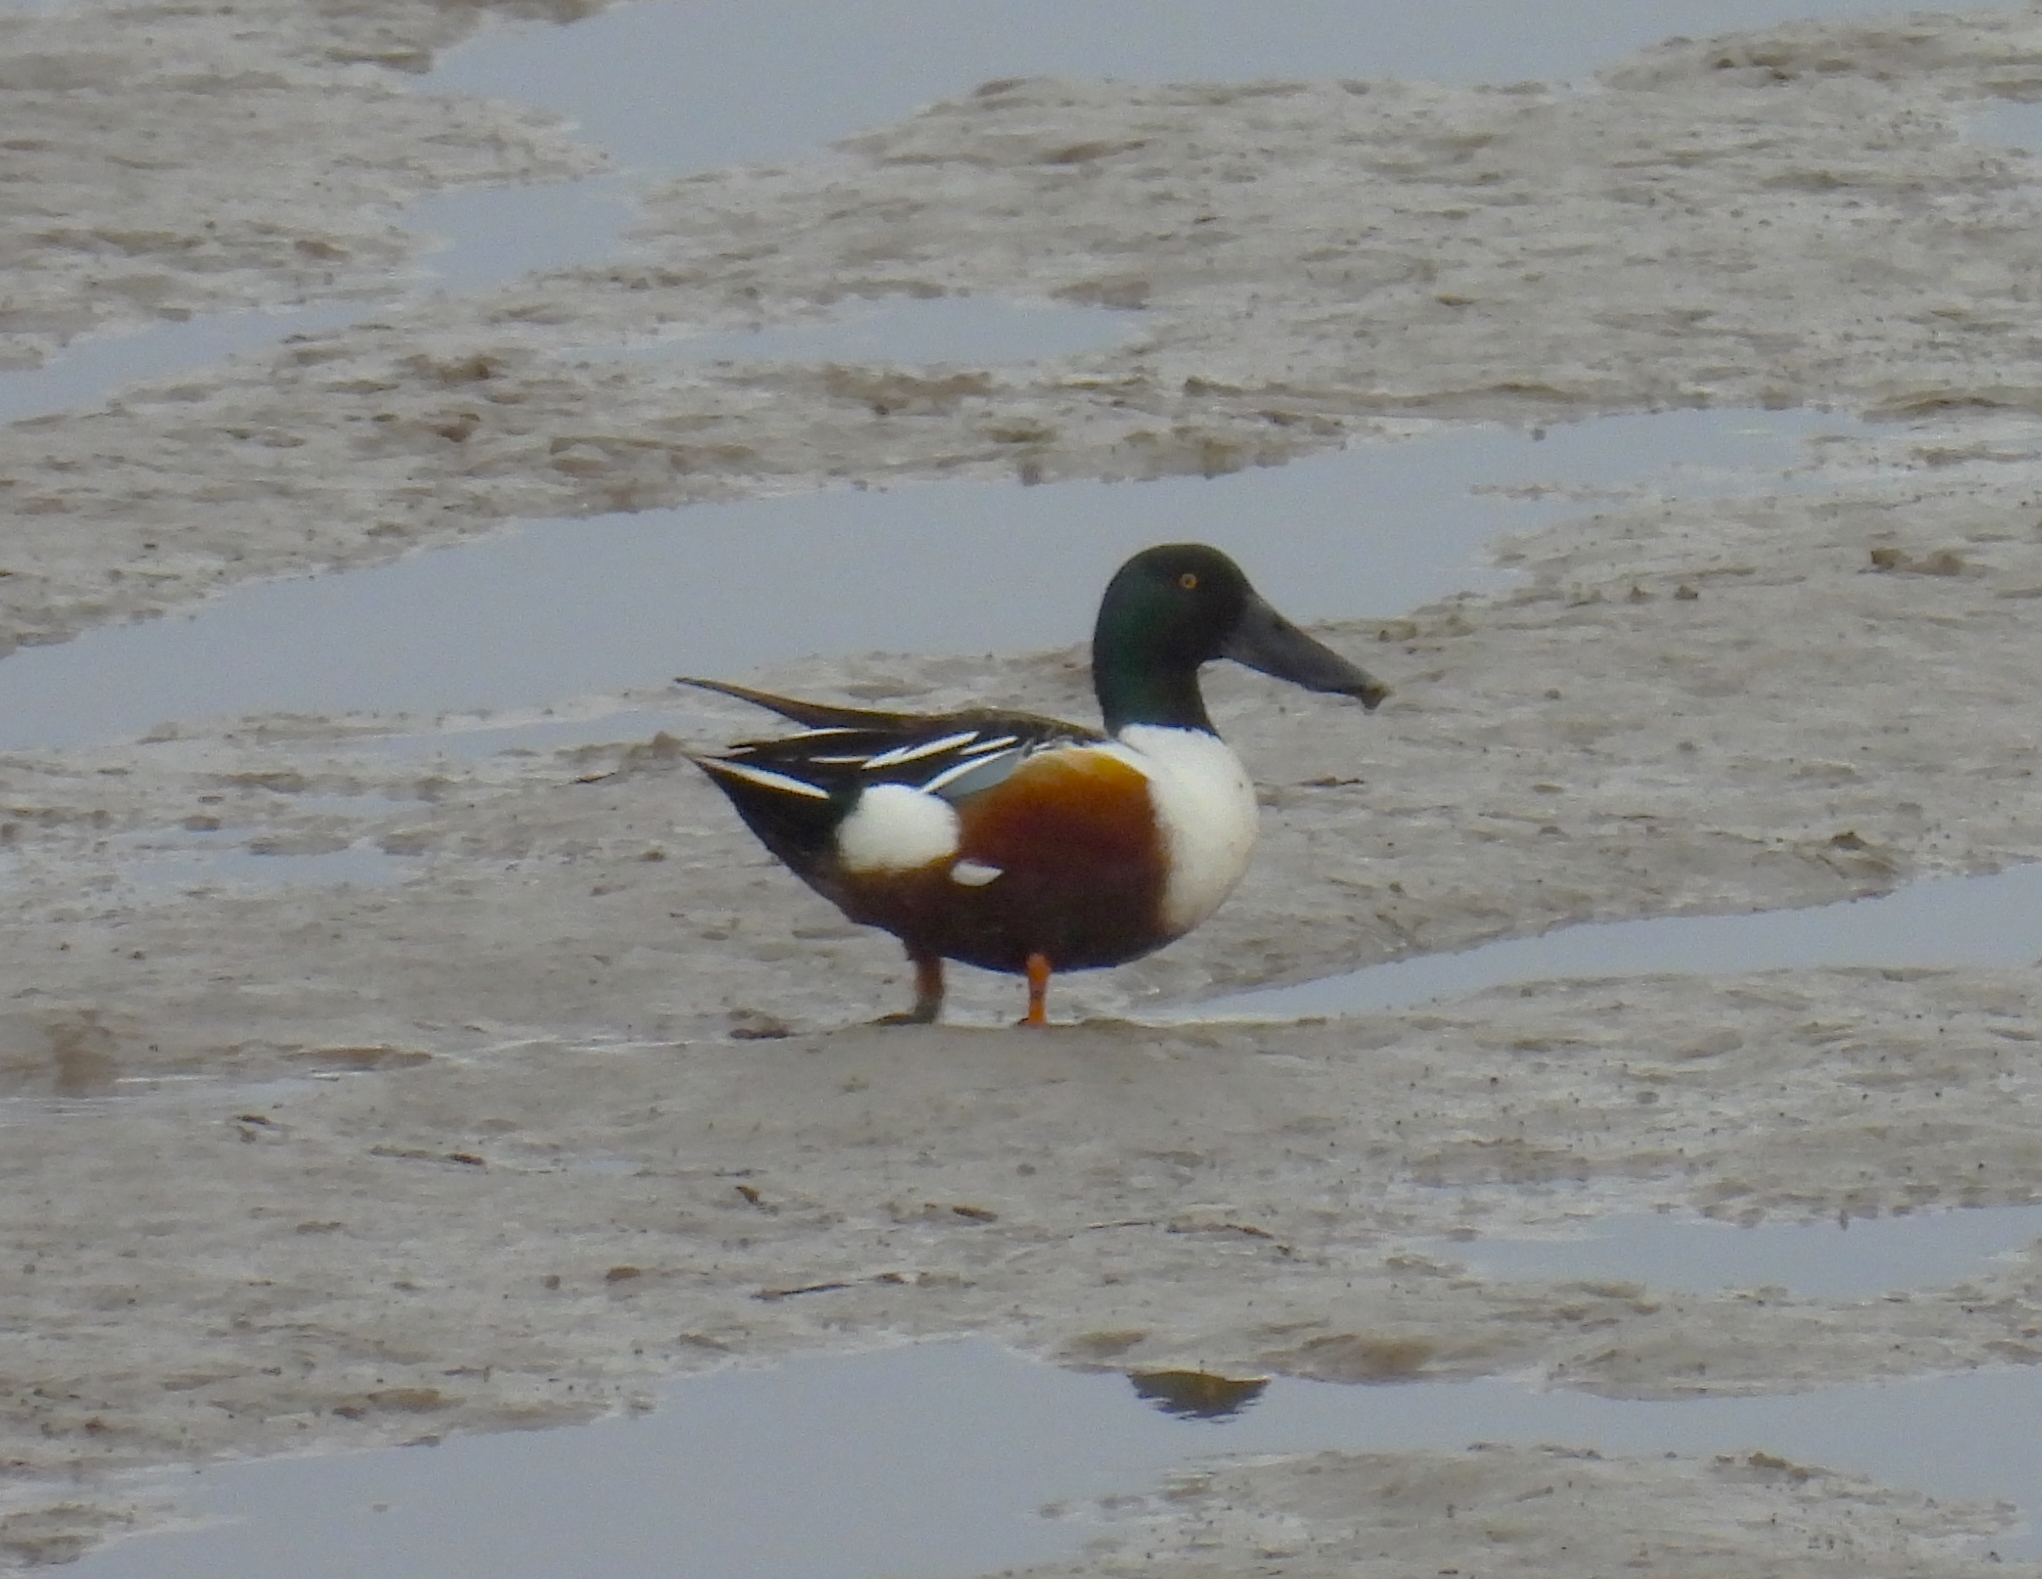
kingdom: Animalia
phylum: Chordata
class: Aves
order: Anseriformes
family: Anatidae
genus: Spatula
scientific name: Spatula clypeata
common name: Northern shoveler
